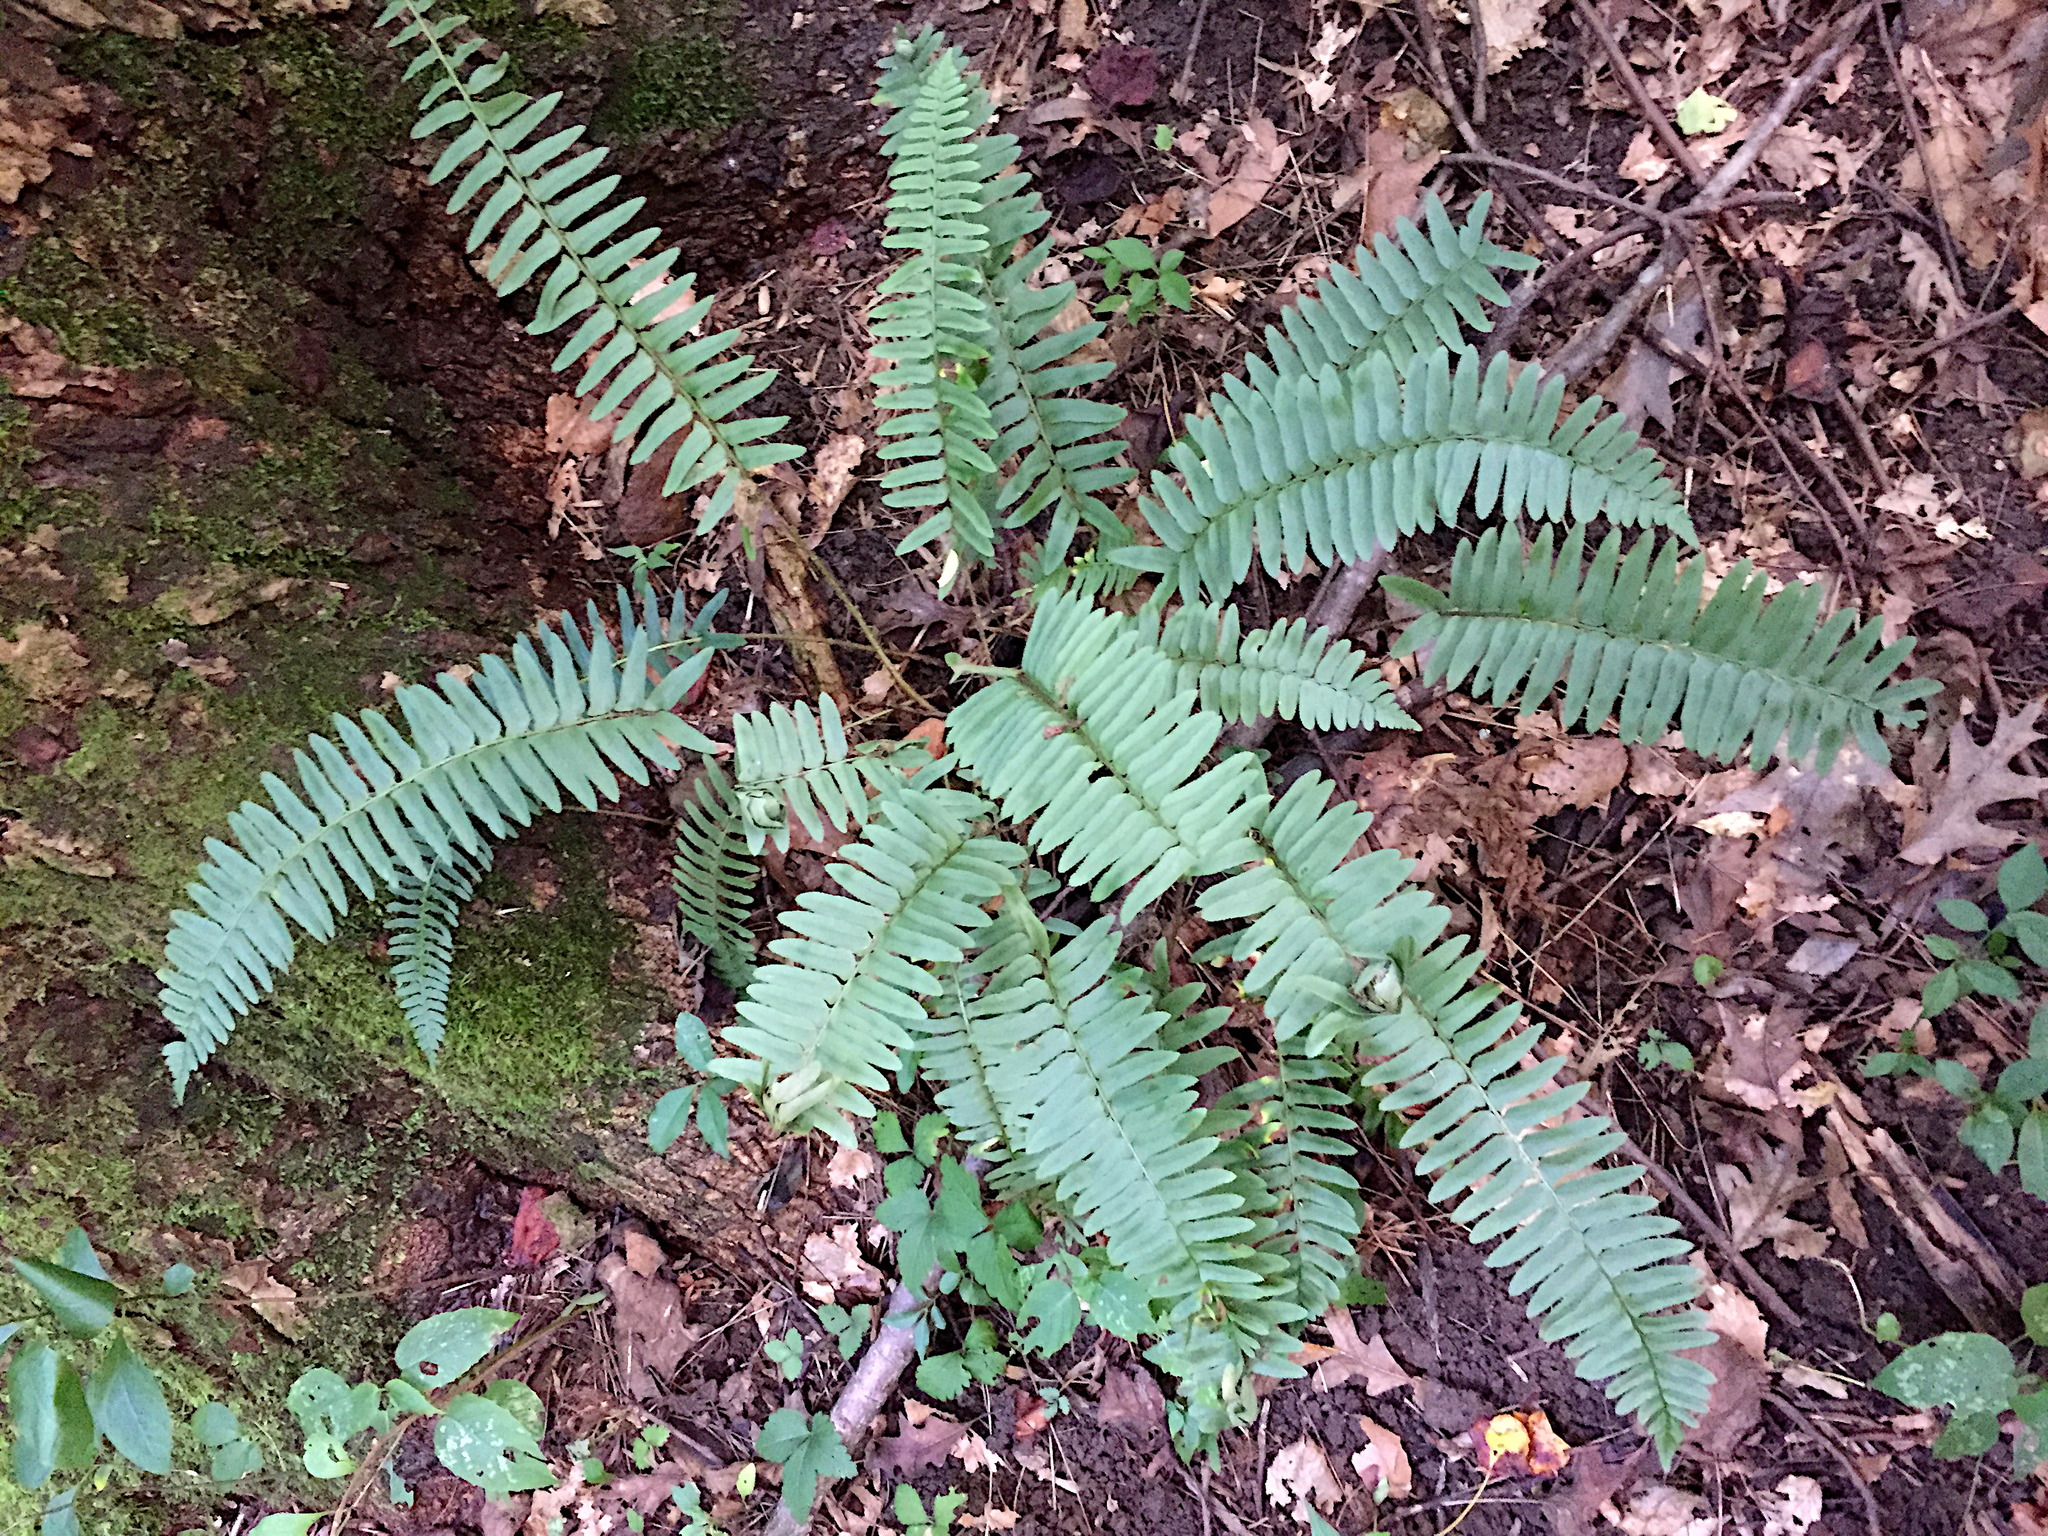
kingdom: Plantae
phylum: Tracheophyta
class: Polypodiopsida
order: Polypodiales
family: Dryopteridaceae
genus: Polystichum
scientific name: Polystichum acrostichoides
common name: Christmas fern
